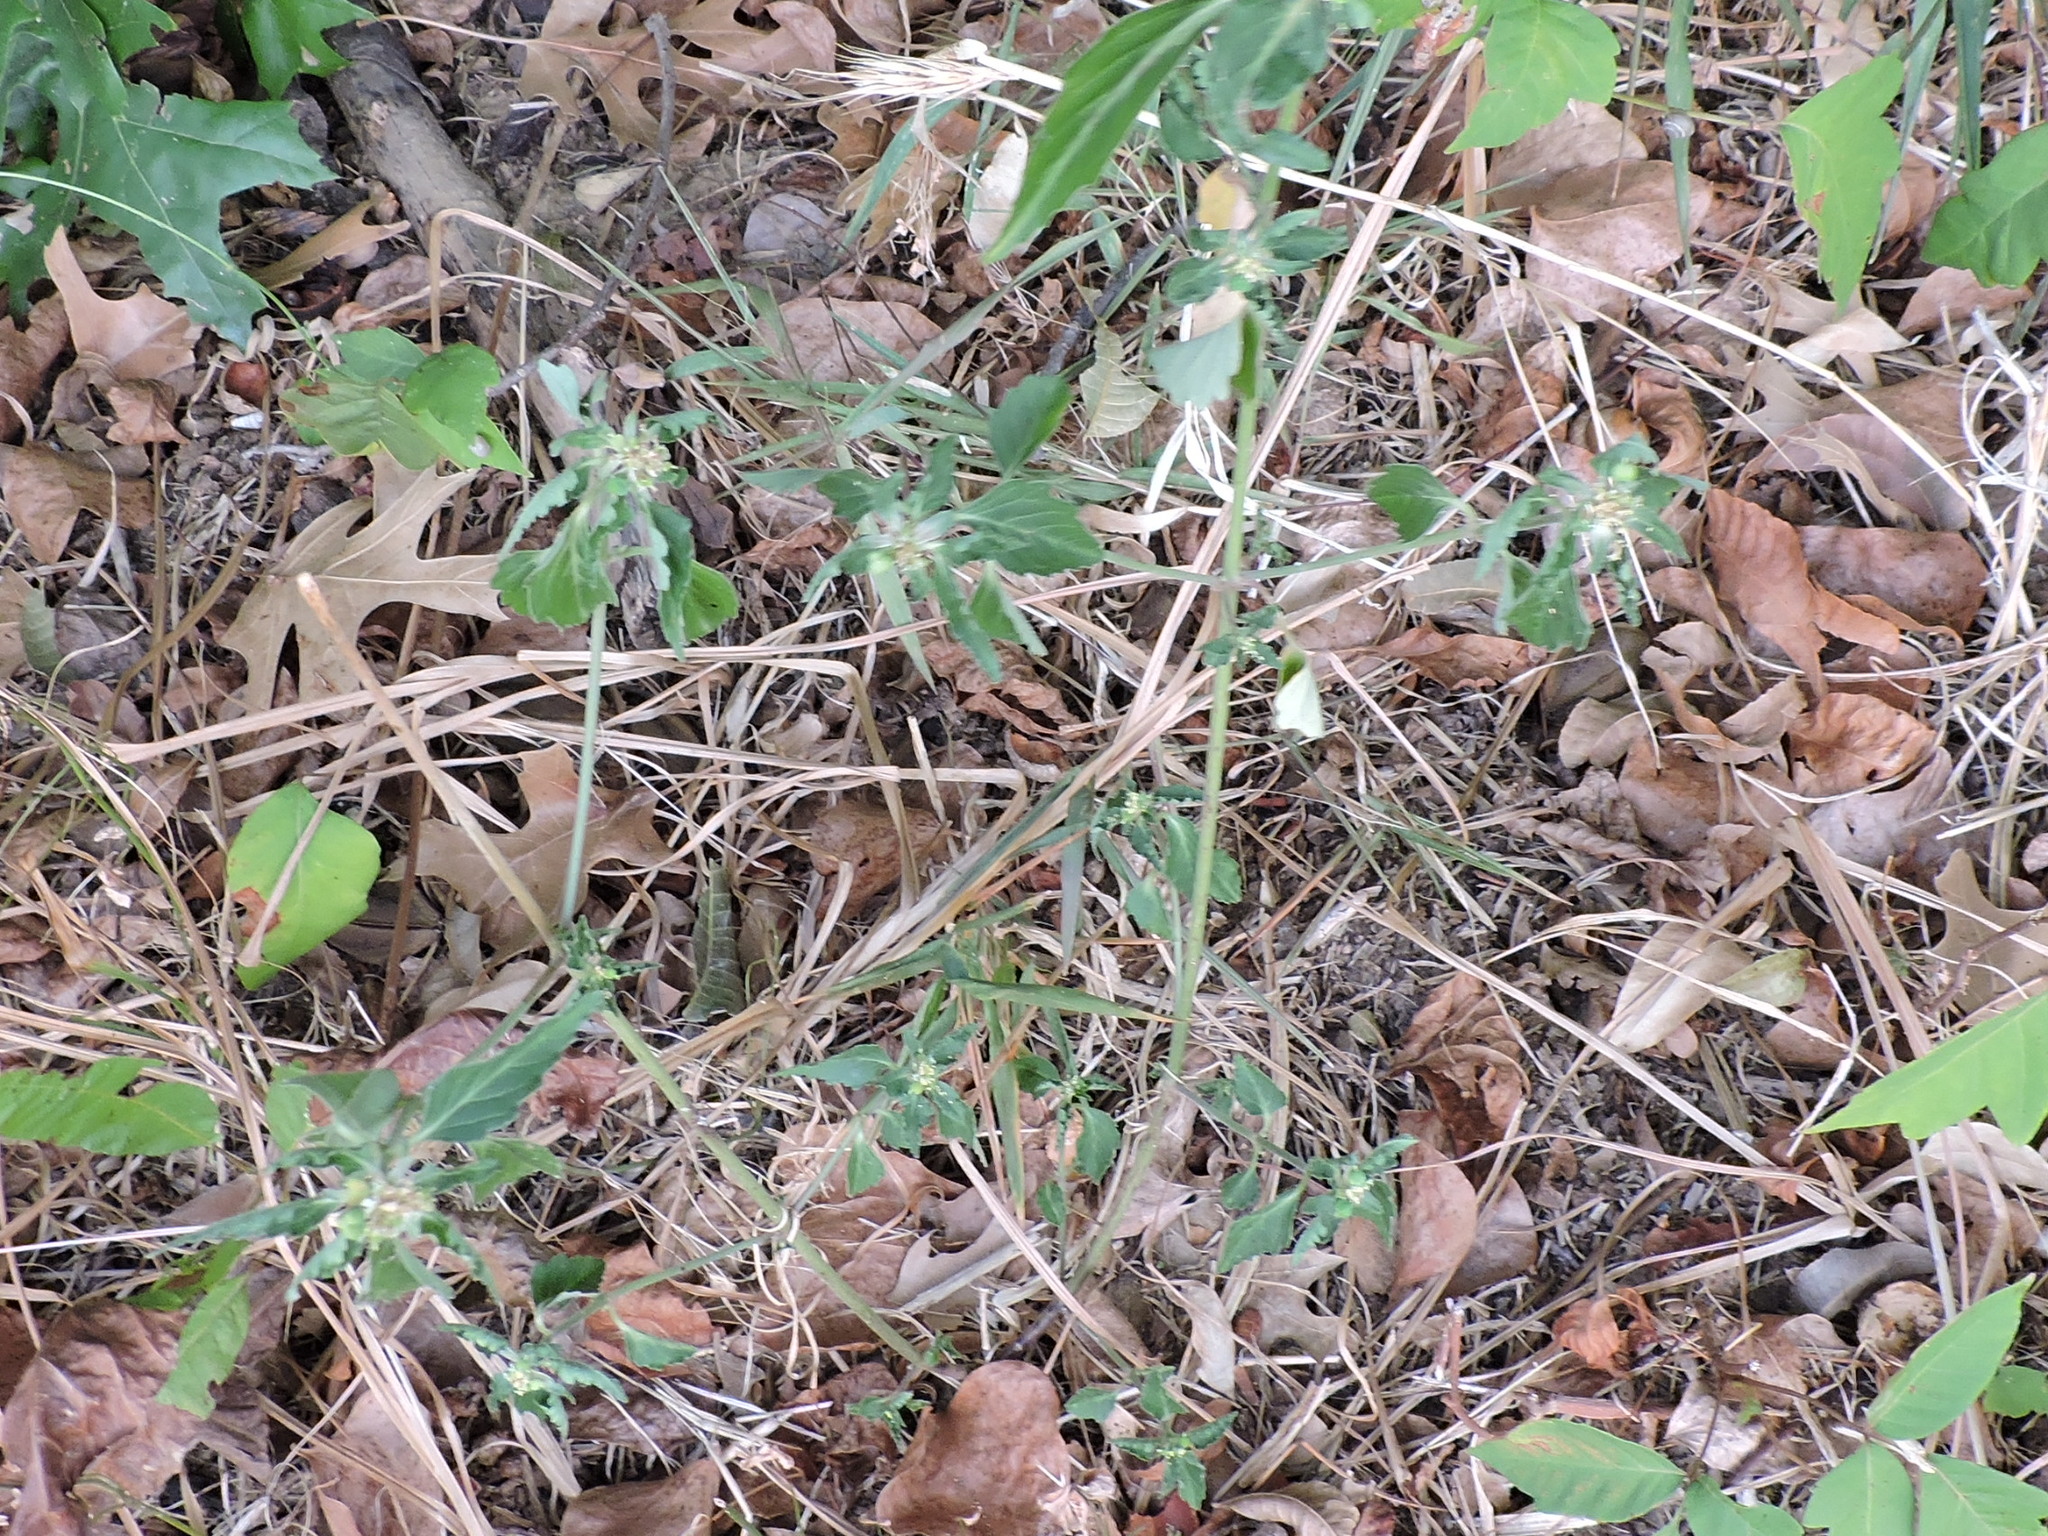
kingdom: Plantae
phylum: Tracheophyta
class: Magnoliopsida
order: Malpighiales
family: Euphorbiaceae
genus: Euphorbia
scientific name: Euphorbia dentata
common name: Dentate spurge
